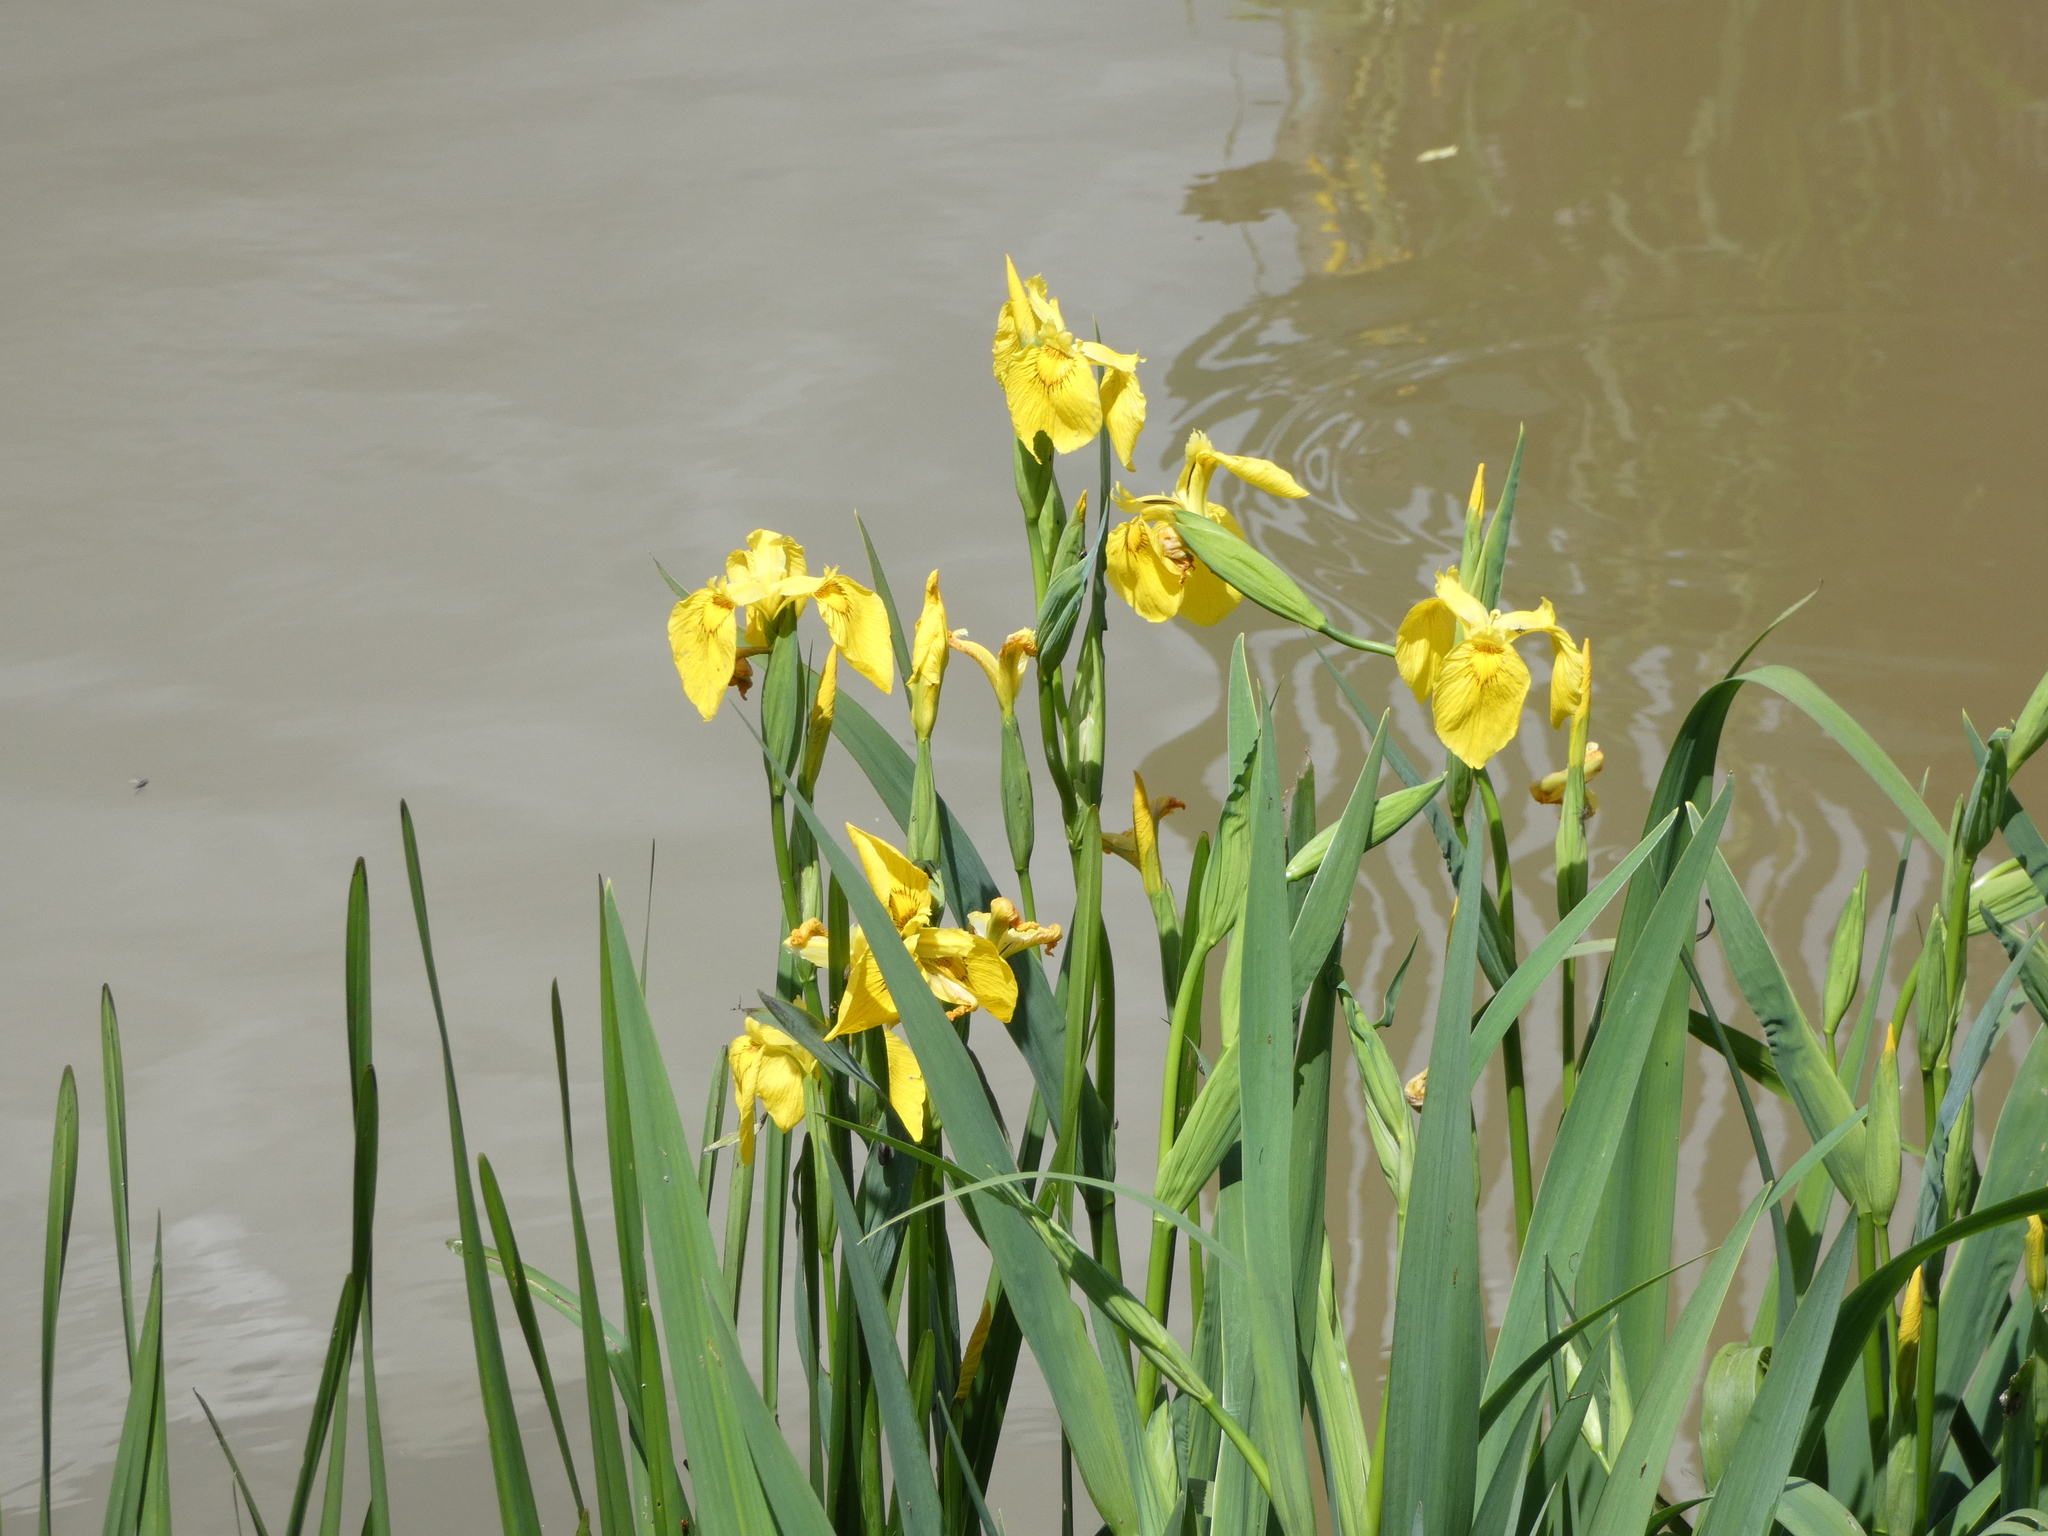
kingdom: Plantae
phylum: Tracheophyta
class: Liliopsida
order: Asparagales
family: Iridaceae
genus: Iris
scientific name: Iris pseudacorus
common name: Yellow flag
